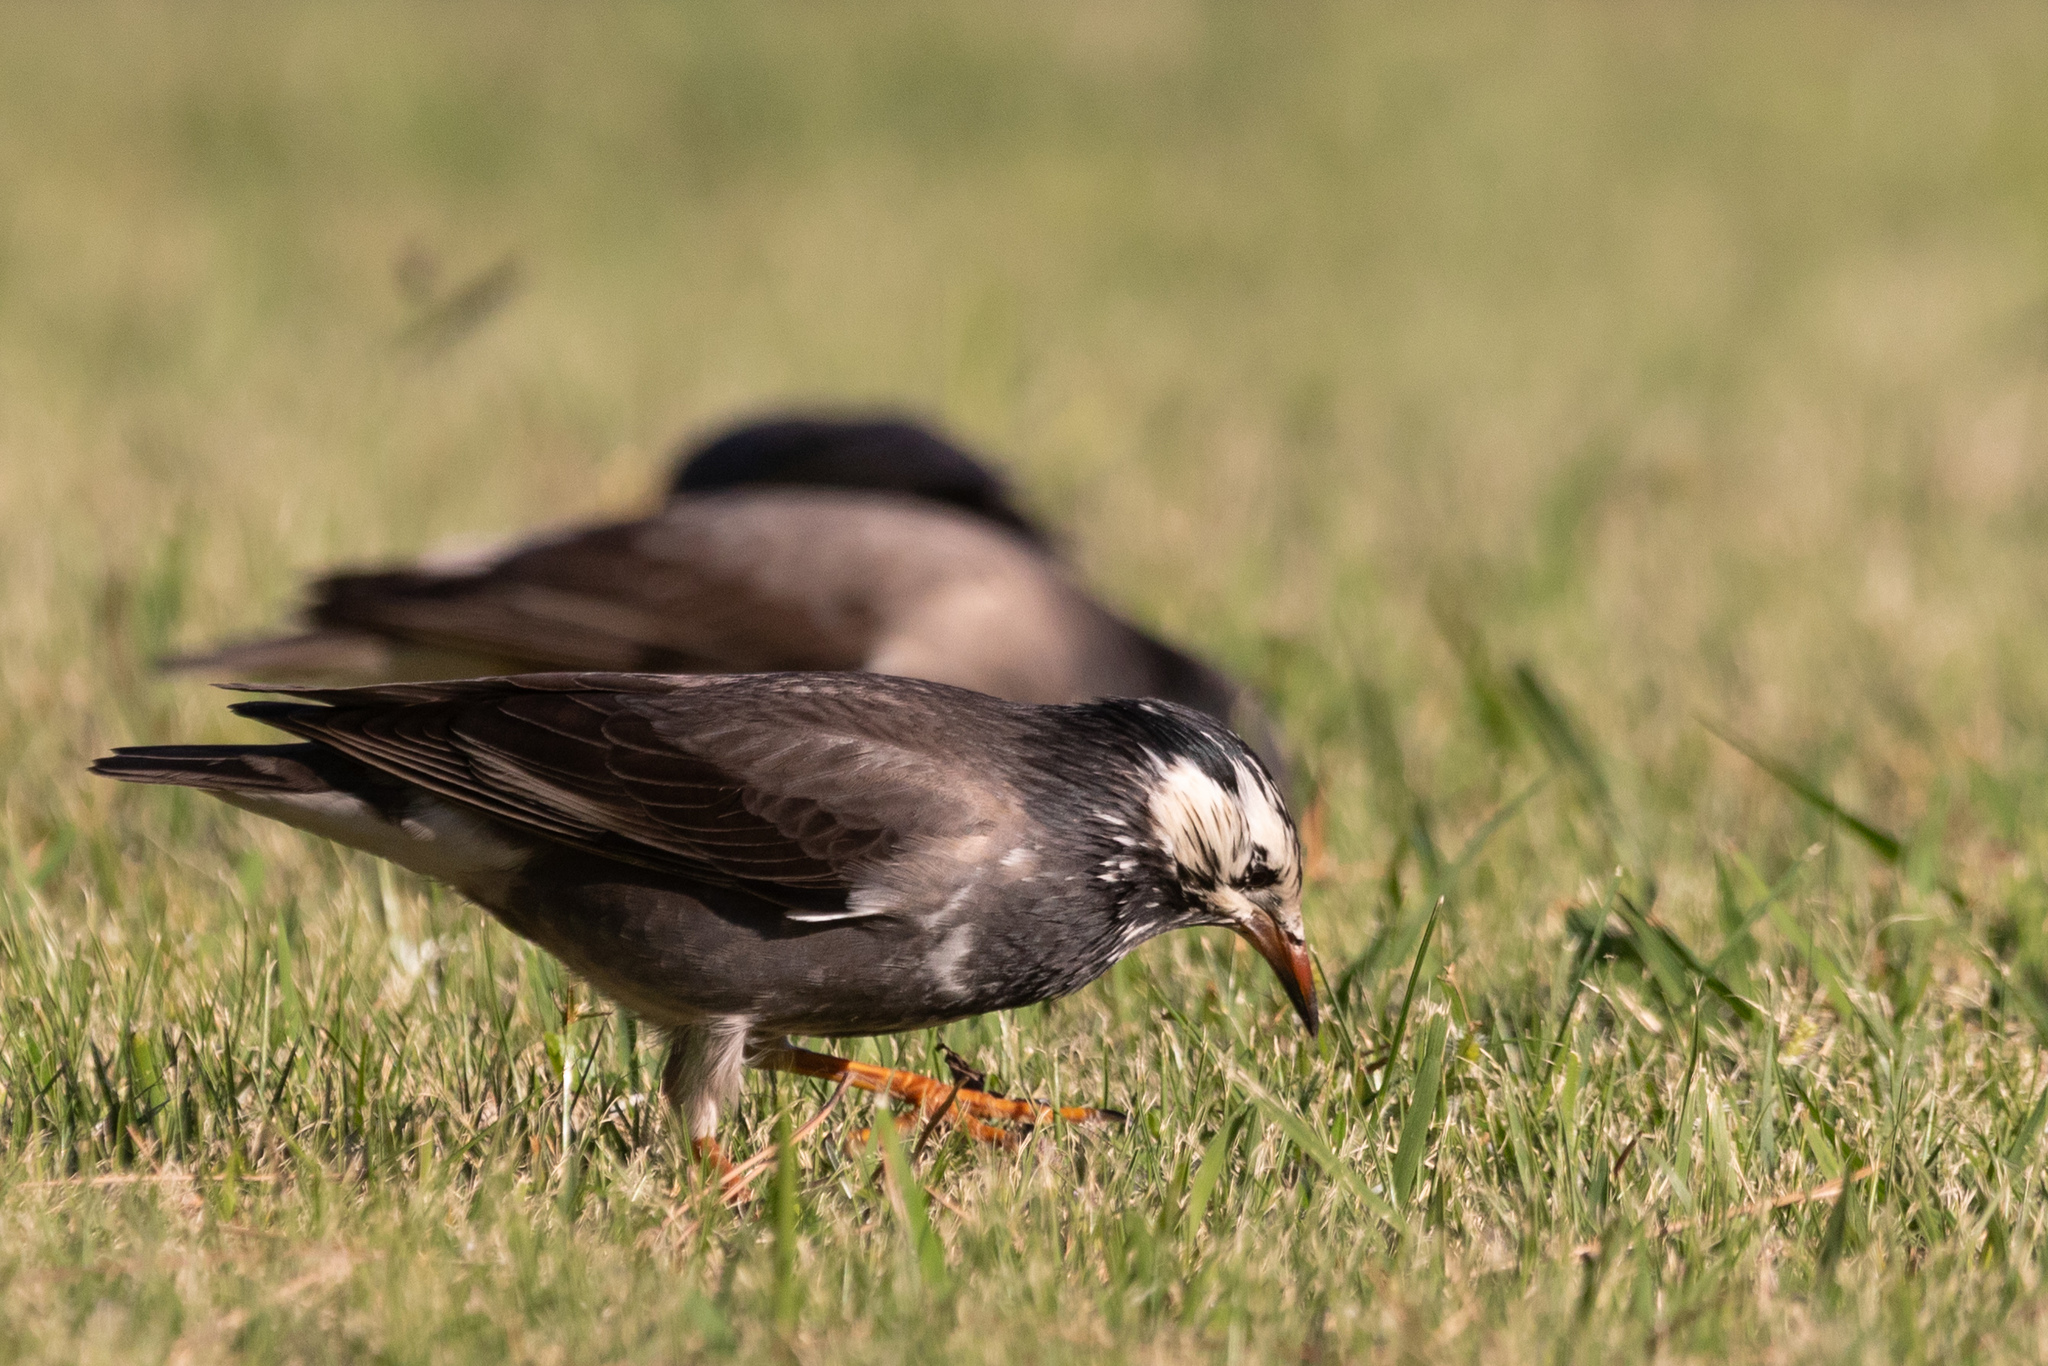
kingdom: Animalia
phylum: Chordata
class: Aves
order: Passeriformes
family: Sturnidae
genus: Spodiopsar
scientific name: Spodiopsar cineraceus
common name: White-cheeked starling
